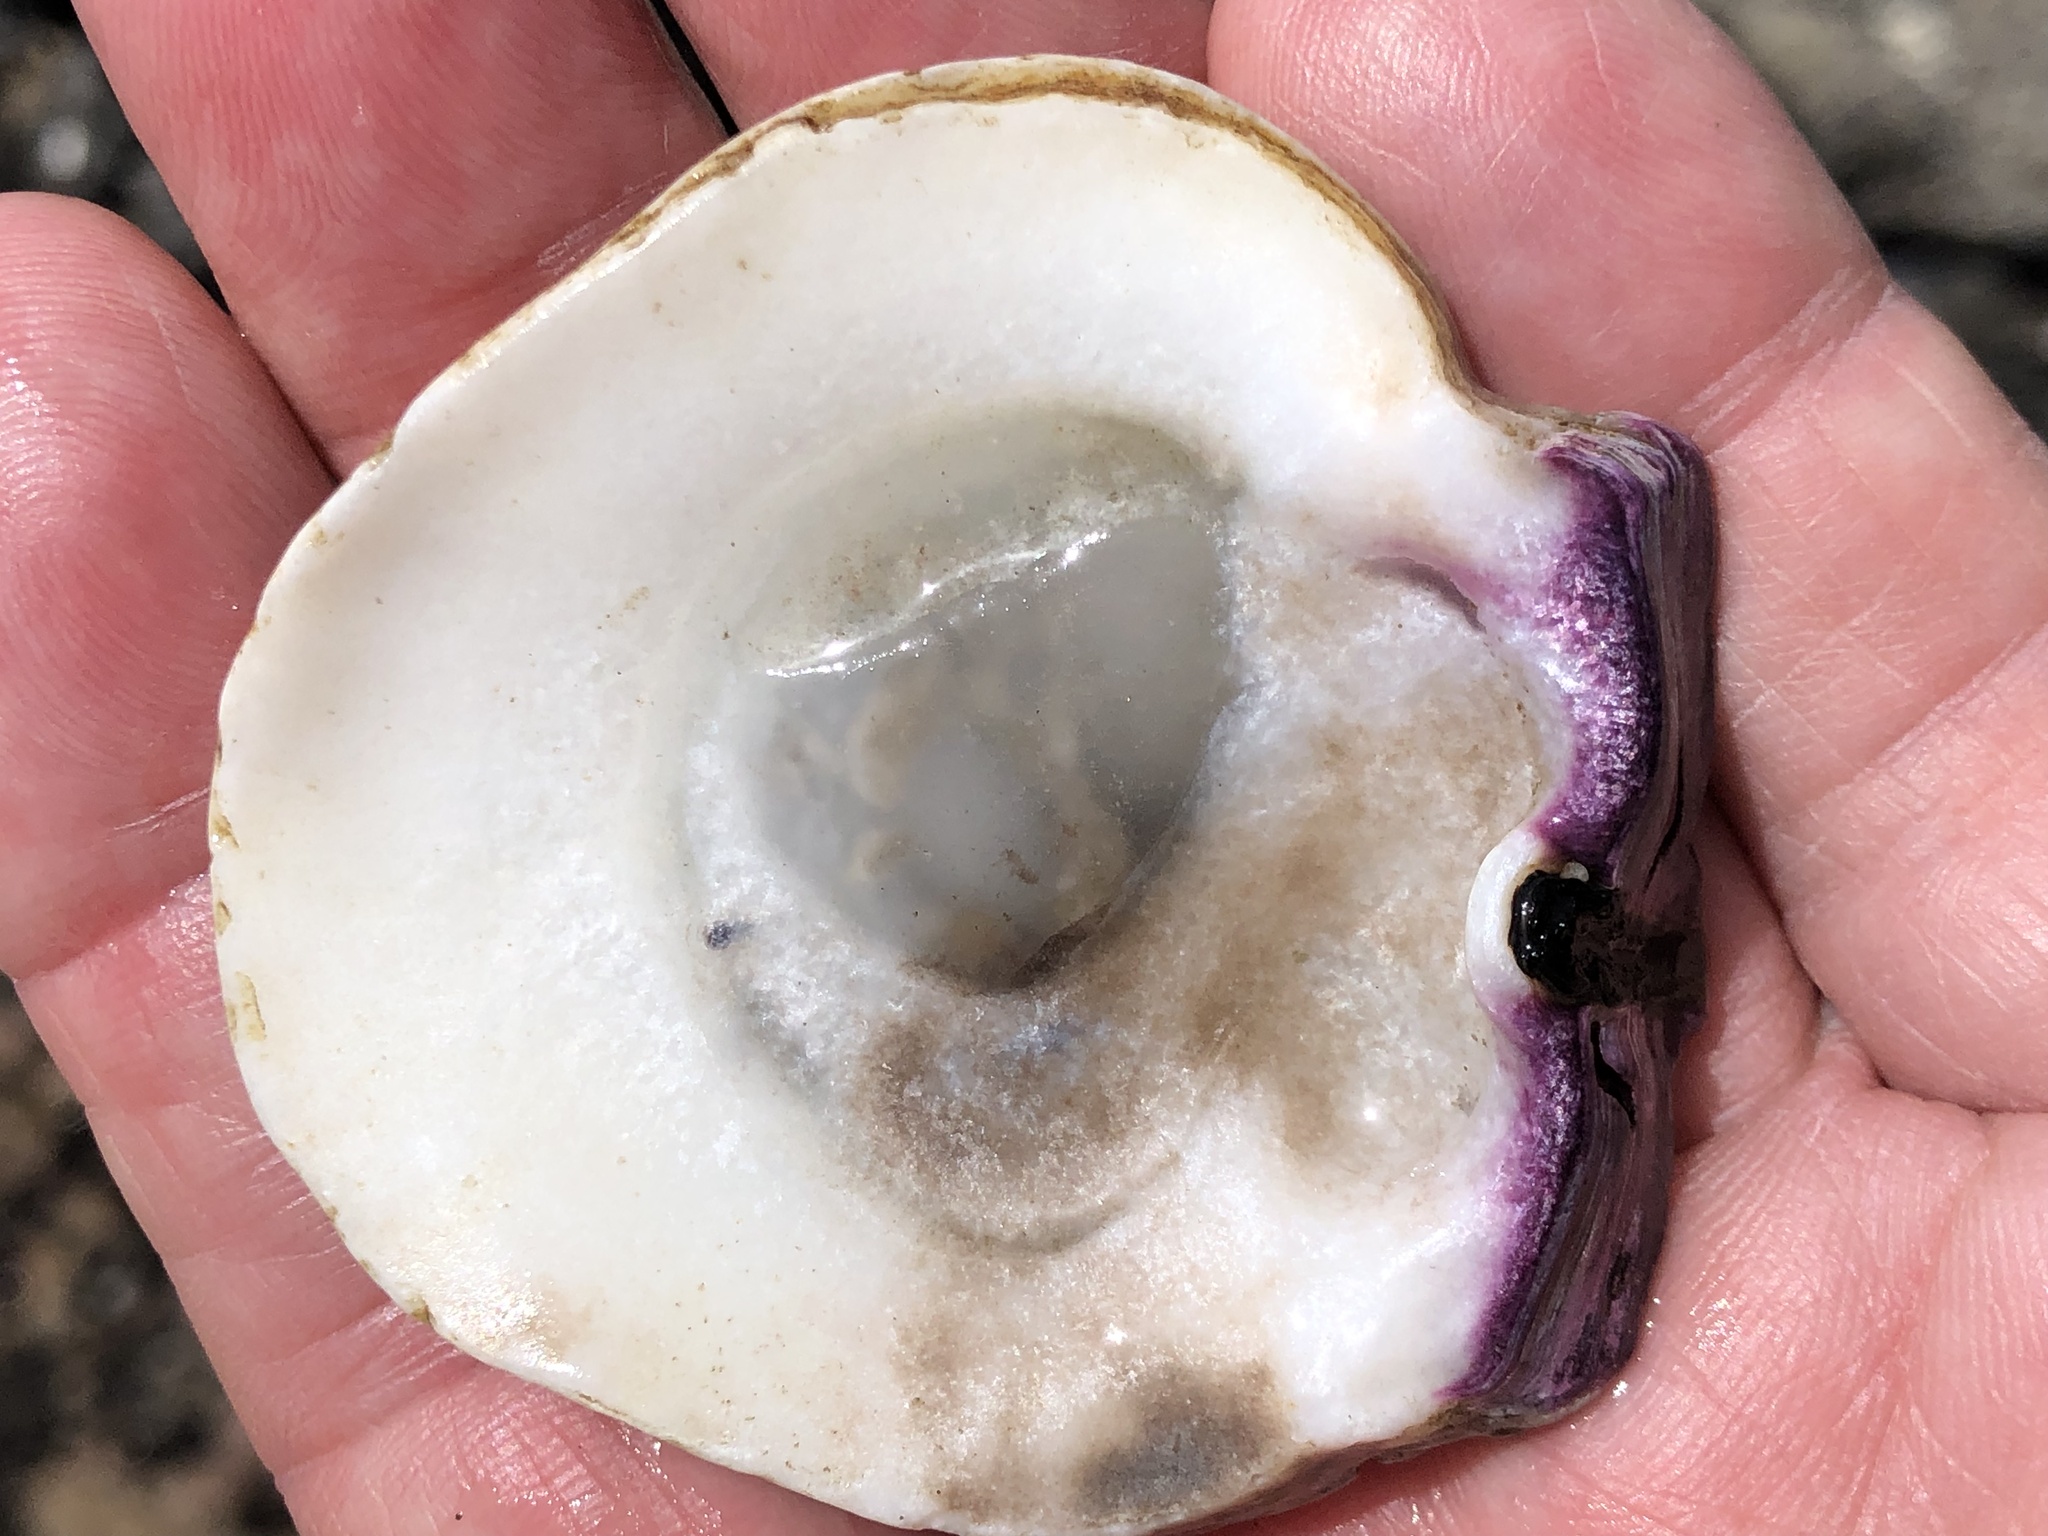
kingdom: Animalia
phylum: Mollusca
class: Bivalvia
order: Pectinida
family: Pectinidae
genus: Crassadoma
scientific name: Crassadoma gigantea
